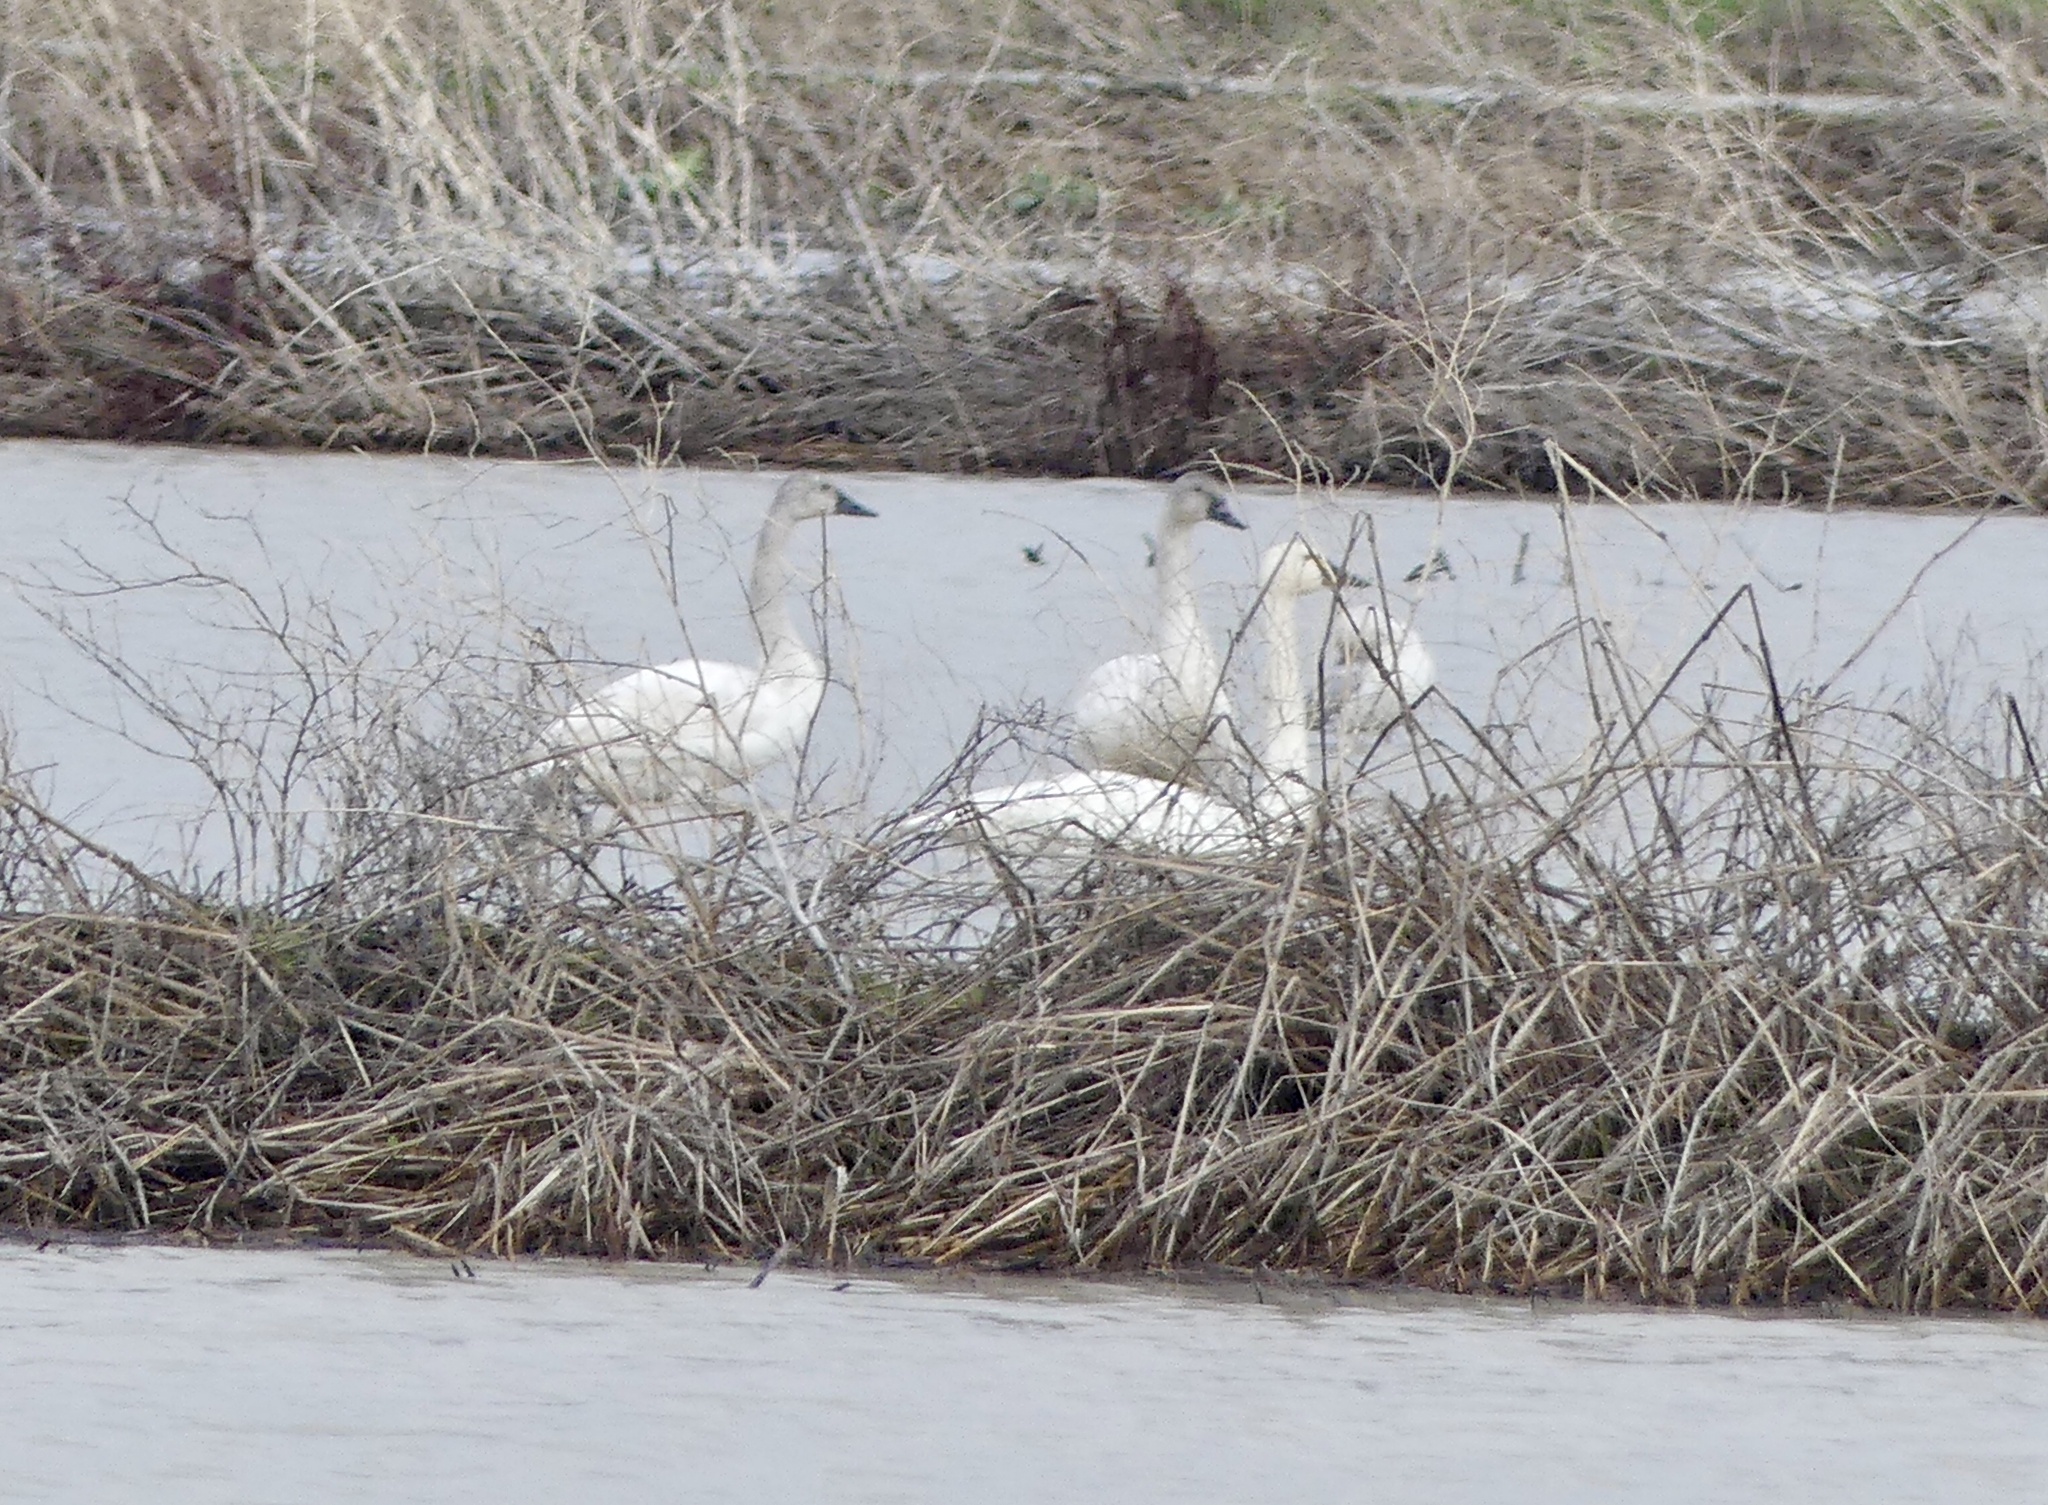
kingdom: Animalia
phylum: Chordata
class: Aves
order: Anseriformes
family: Anatidae
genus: Cygnus
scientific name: Cygnus columbianus
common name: Tundra swan
